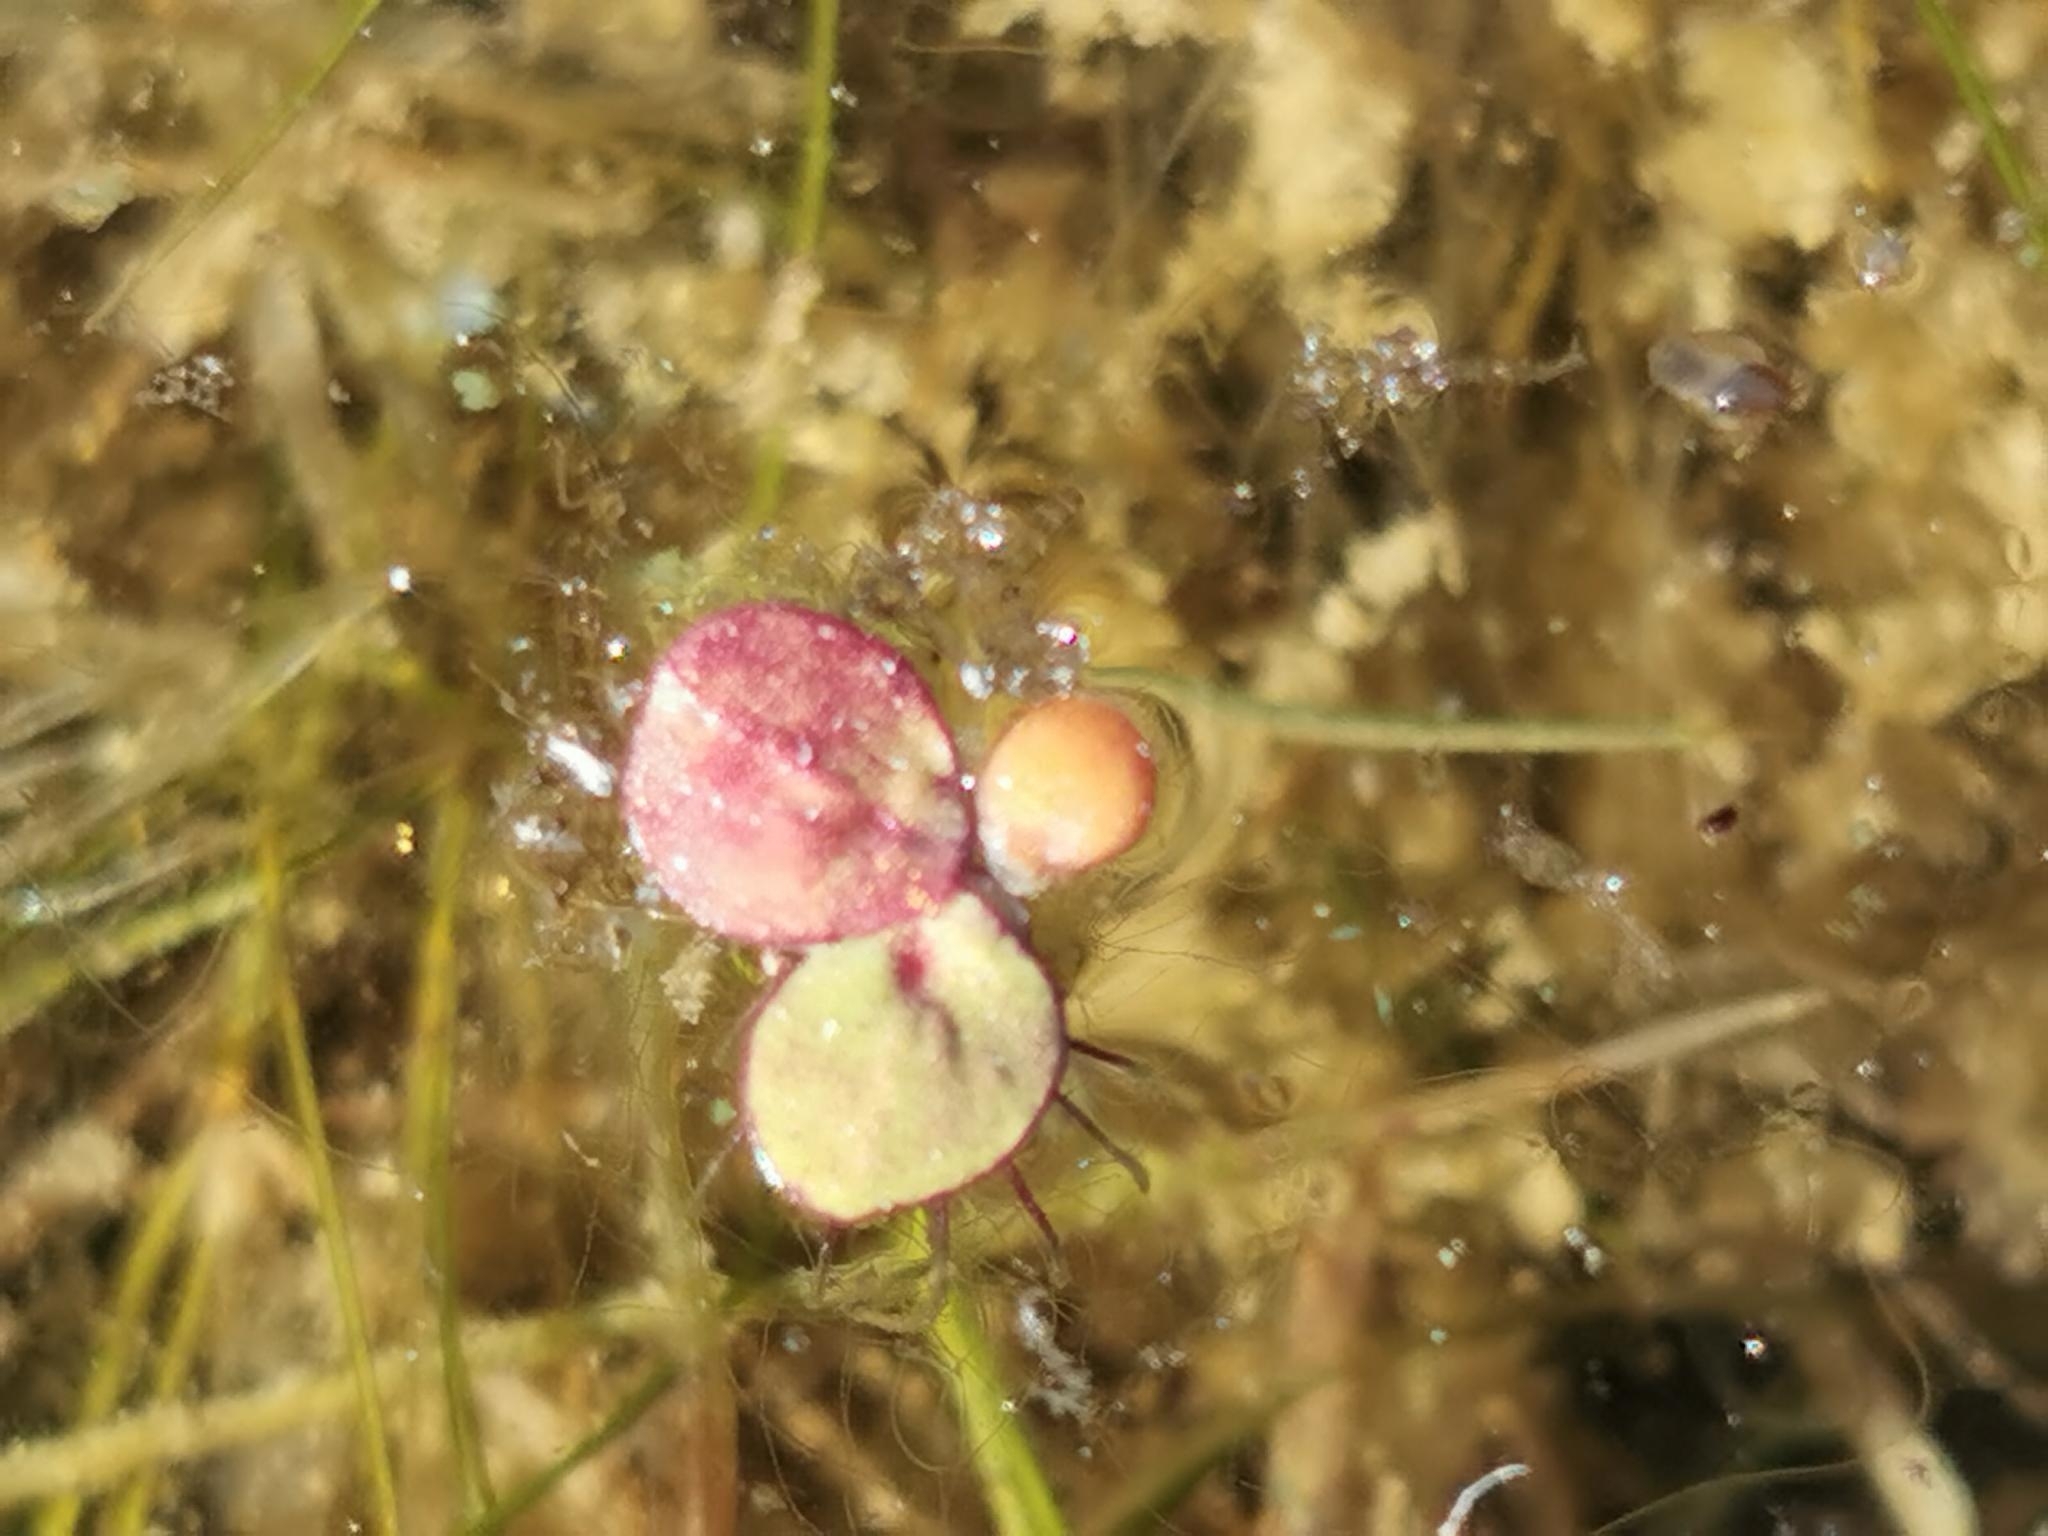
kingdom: Plantae
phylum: Tracheophyta
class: Liliopsida
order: Alismatales
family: Araceae
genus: Spirodela
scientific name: Spirodela polyrhiza
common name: Great duckweed
